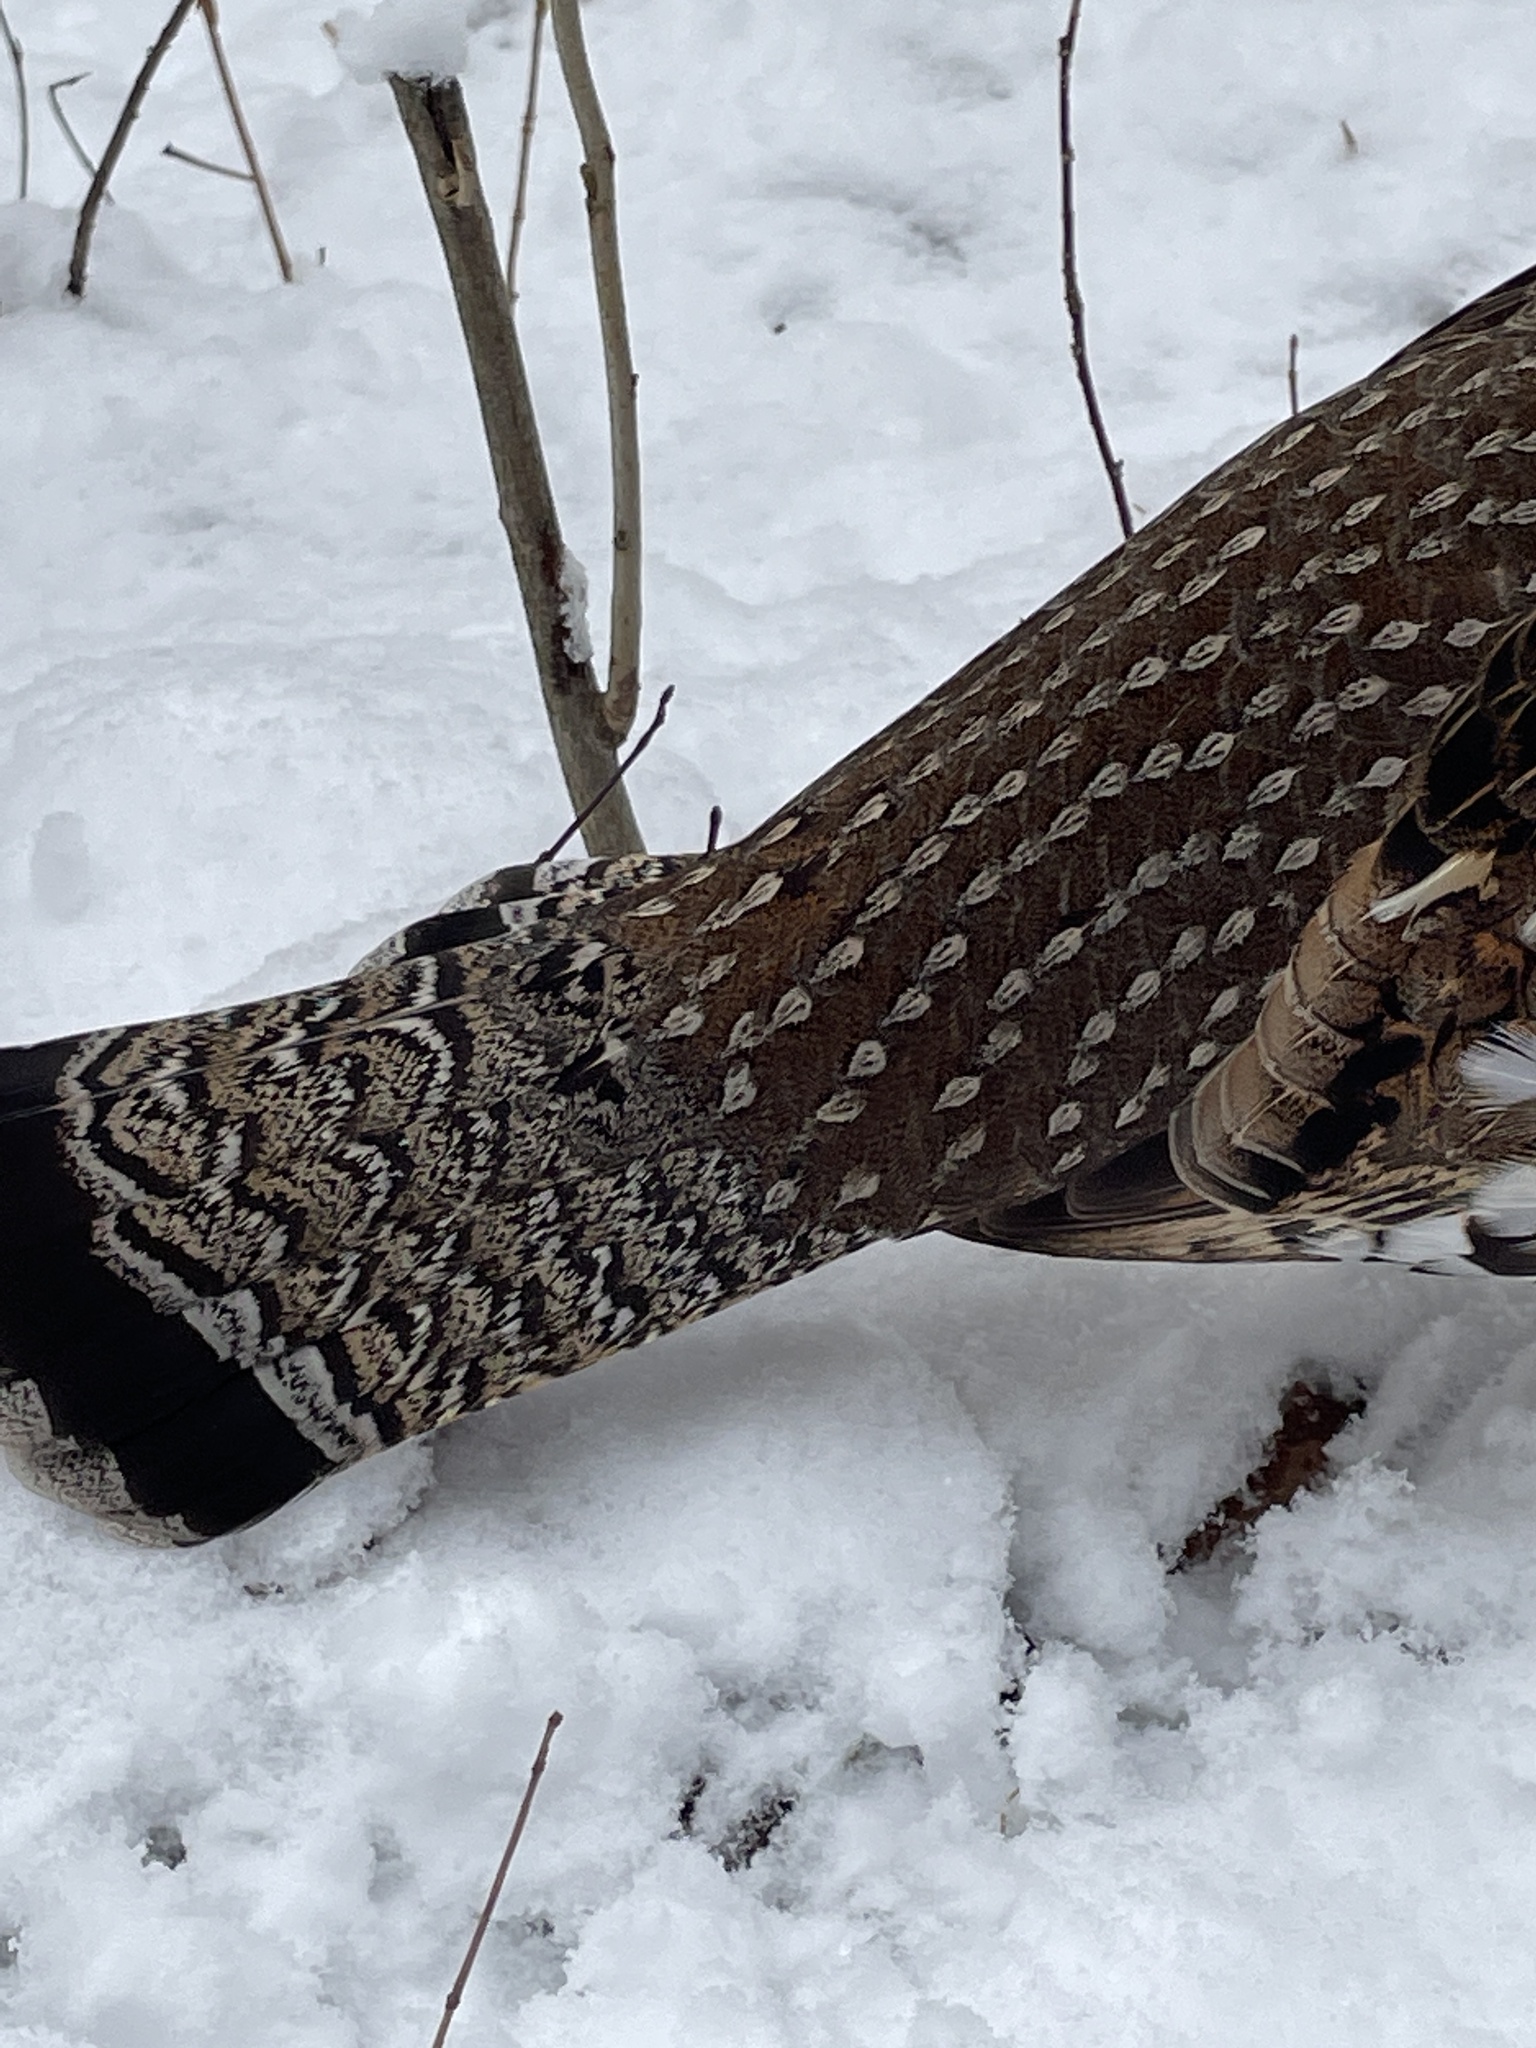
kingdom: Animalia
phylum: Chordata
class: Aves
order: Galliformes
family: Phasianidae
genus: Bonasa
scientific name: Bonasa umbellus
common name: Ruffed grouse
